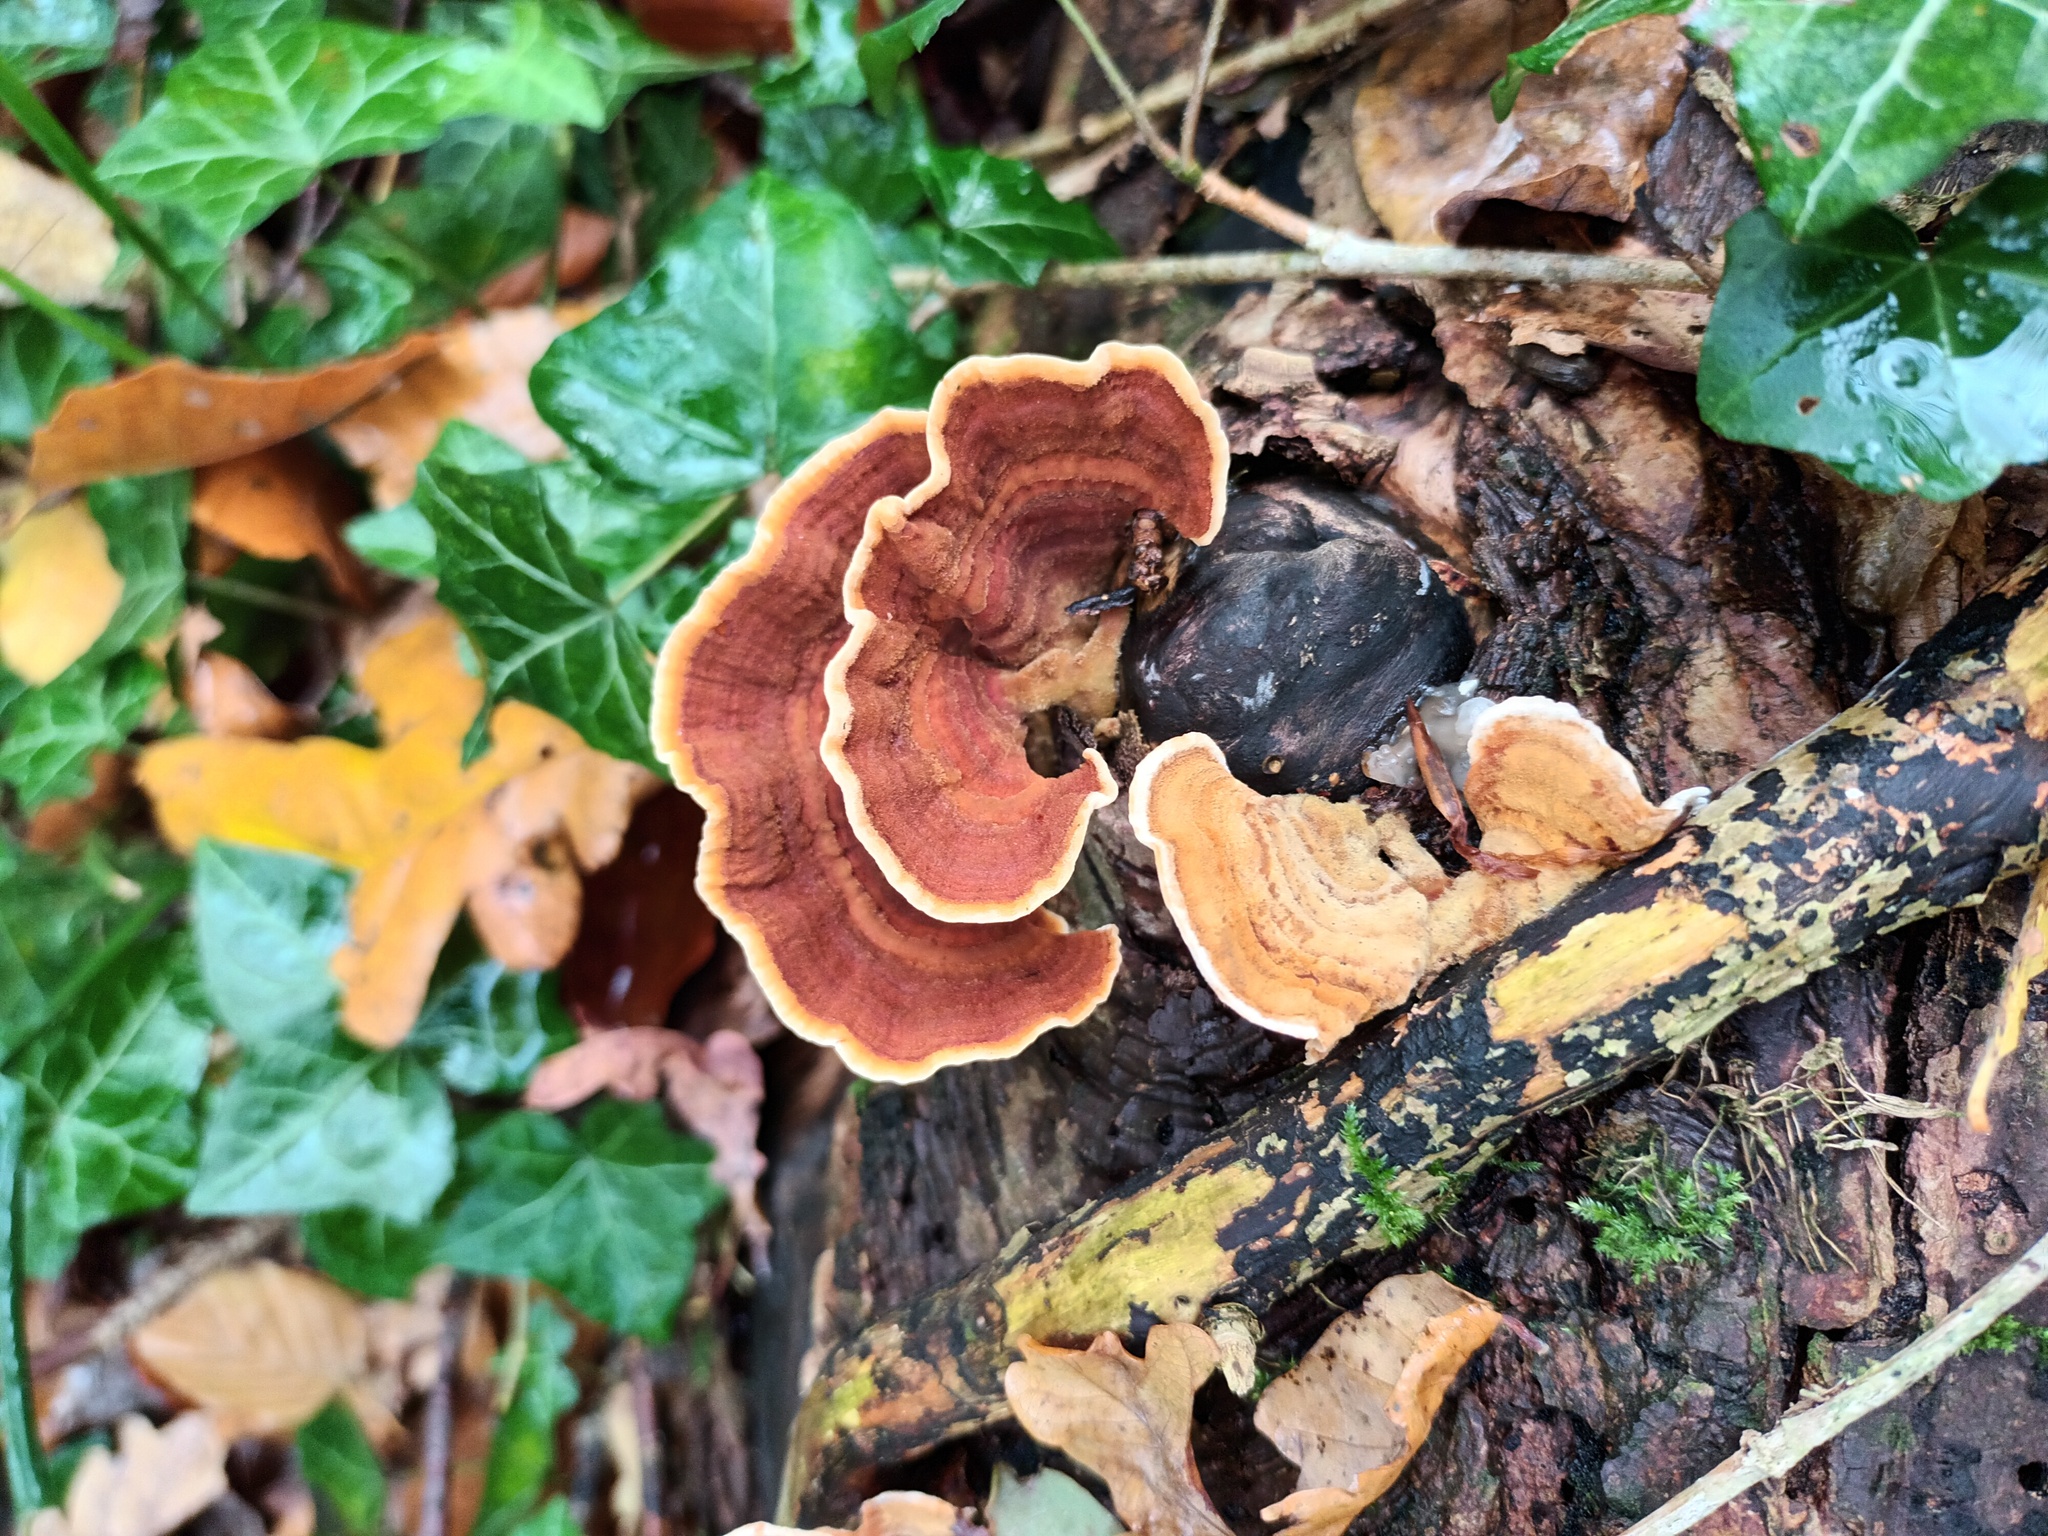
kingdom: Fungi
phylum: Basidiomycota
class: Agaricomycetes
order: Russulales
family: Stereaceae
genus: Stereum
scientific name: Stereum subtomentosum
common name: Yellowing curtain crust
